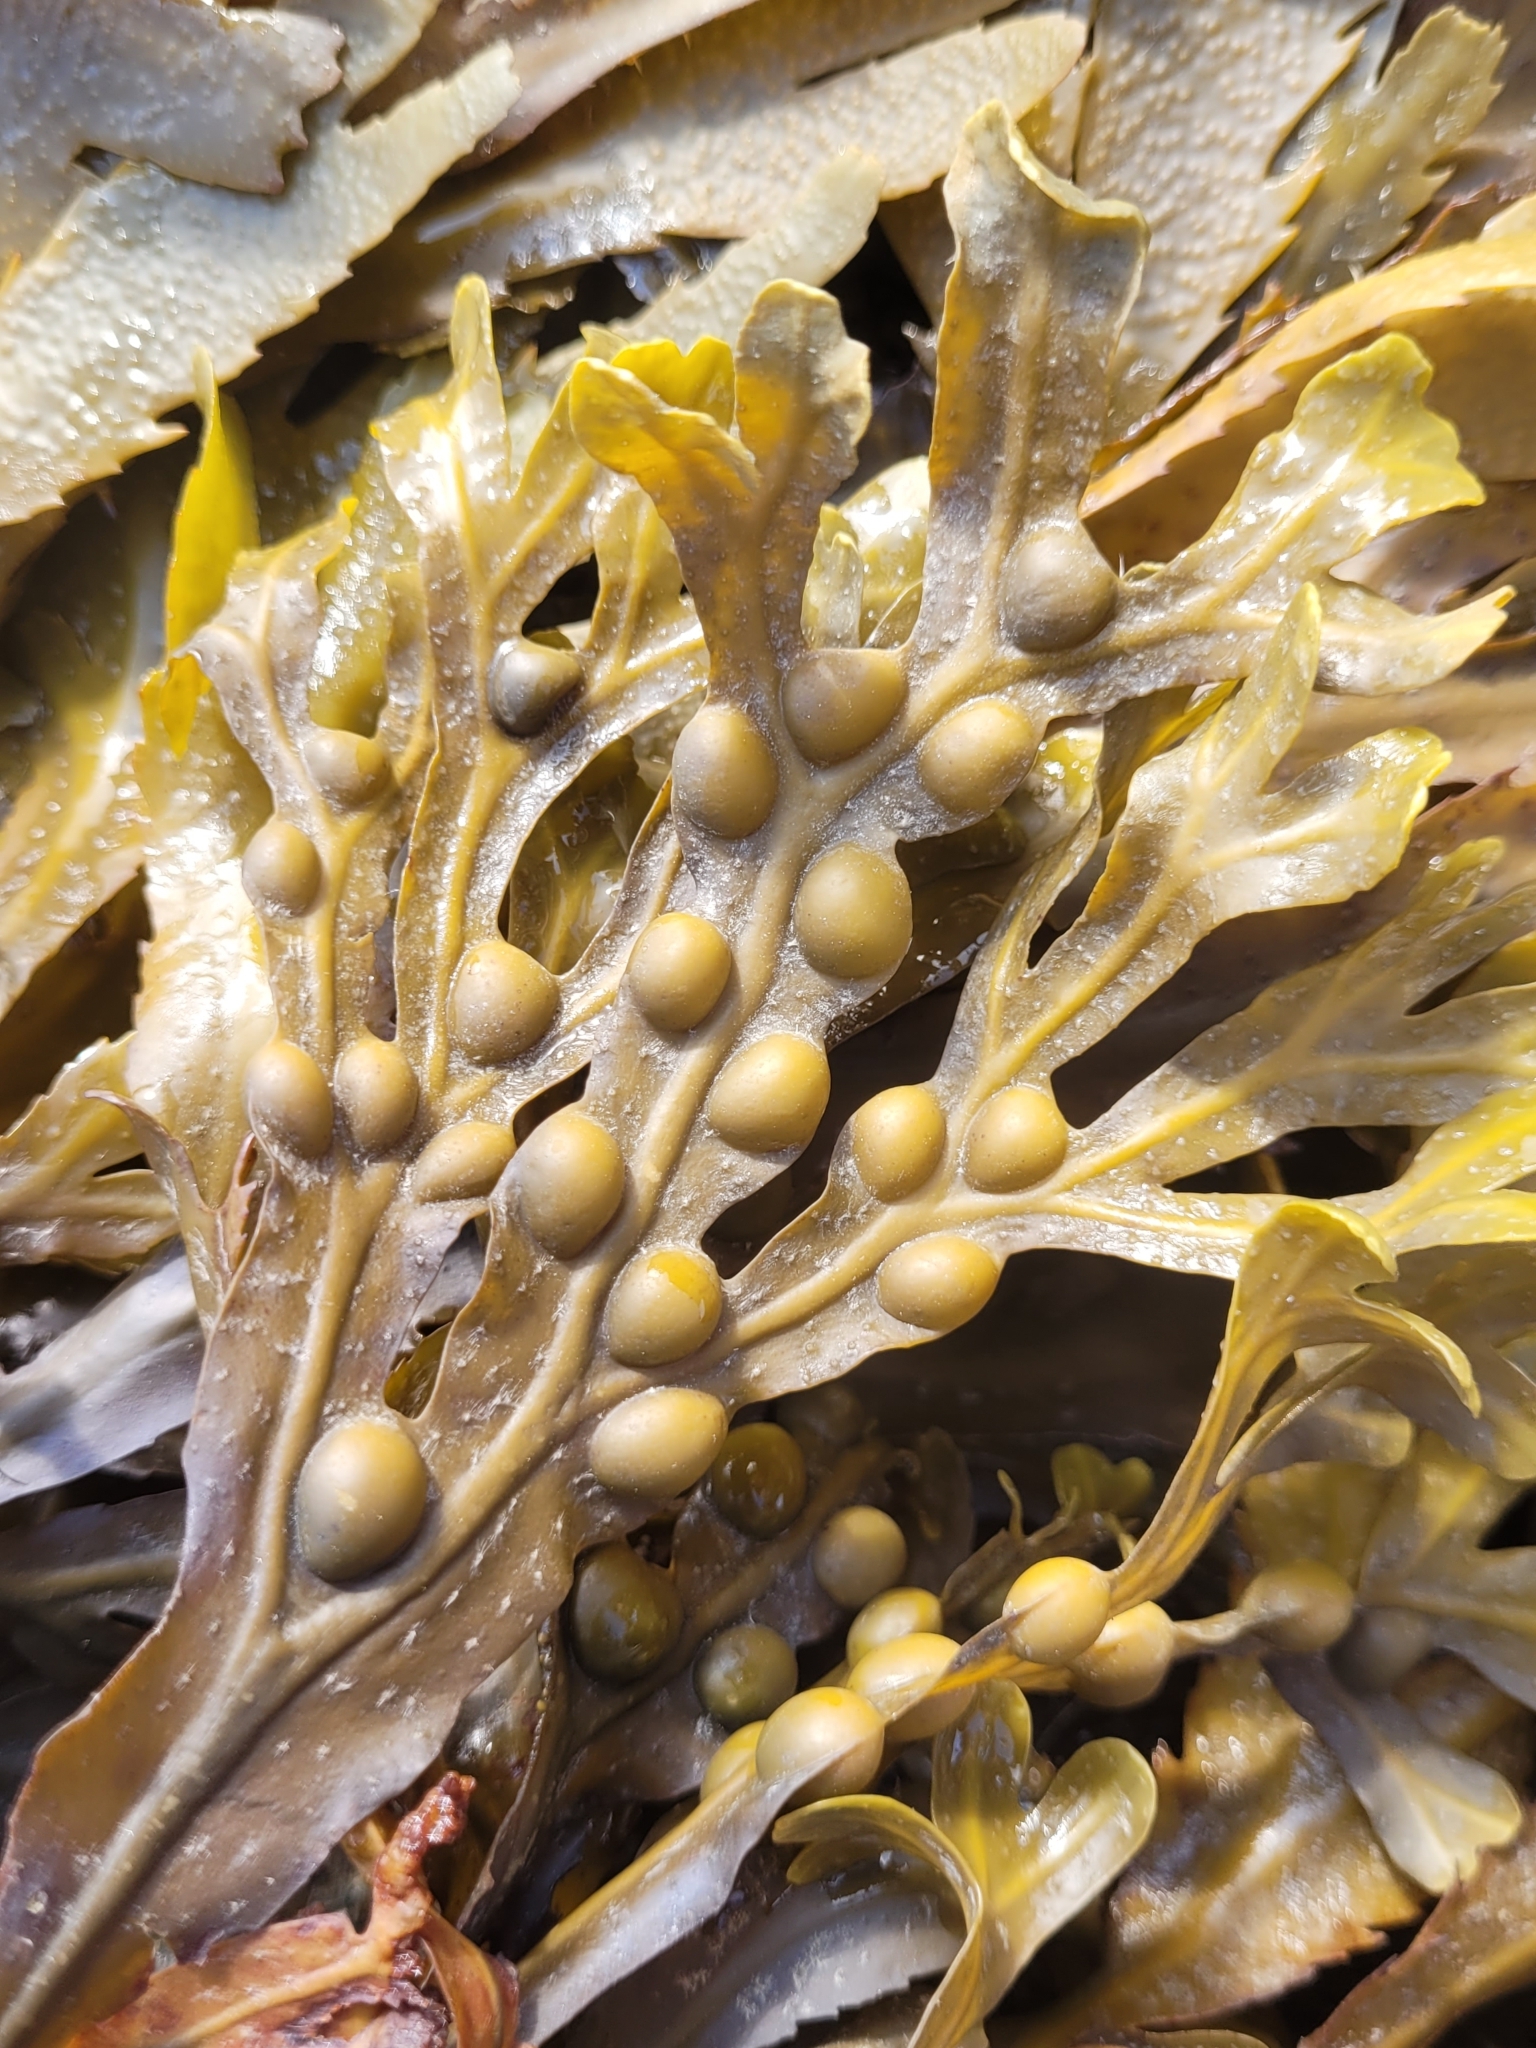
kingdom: Chromista
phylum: Ochrophyta
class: Phaeophyceae
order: Fucales
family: Fucaceae
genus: Fucus
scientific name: Fucus vesiculosus
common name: Bladder wrack
